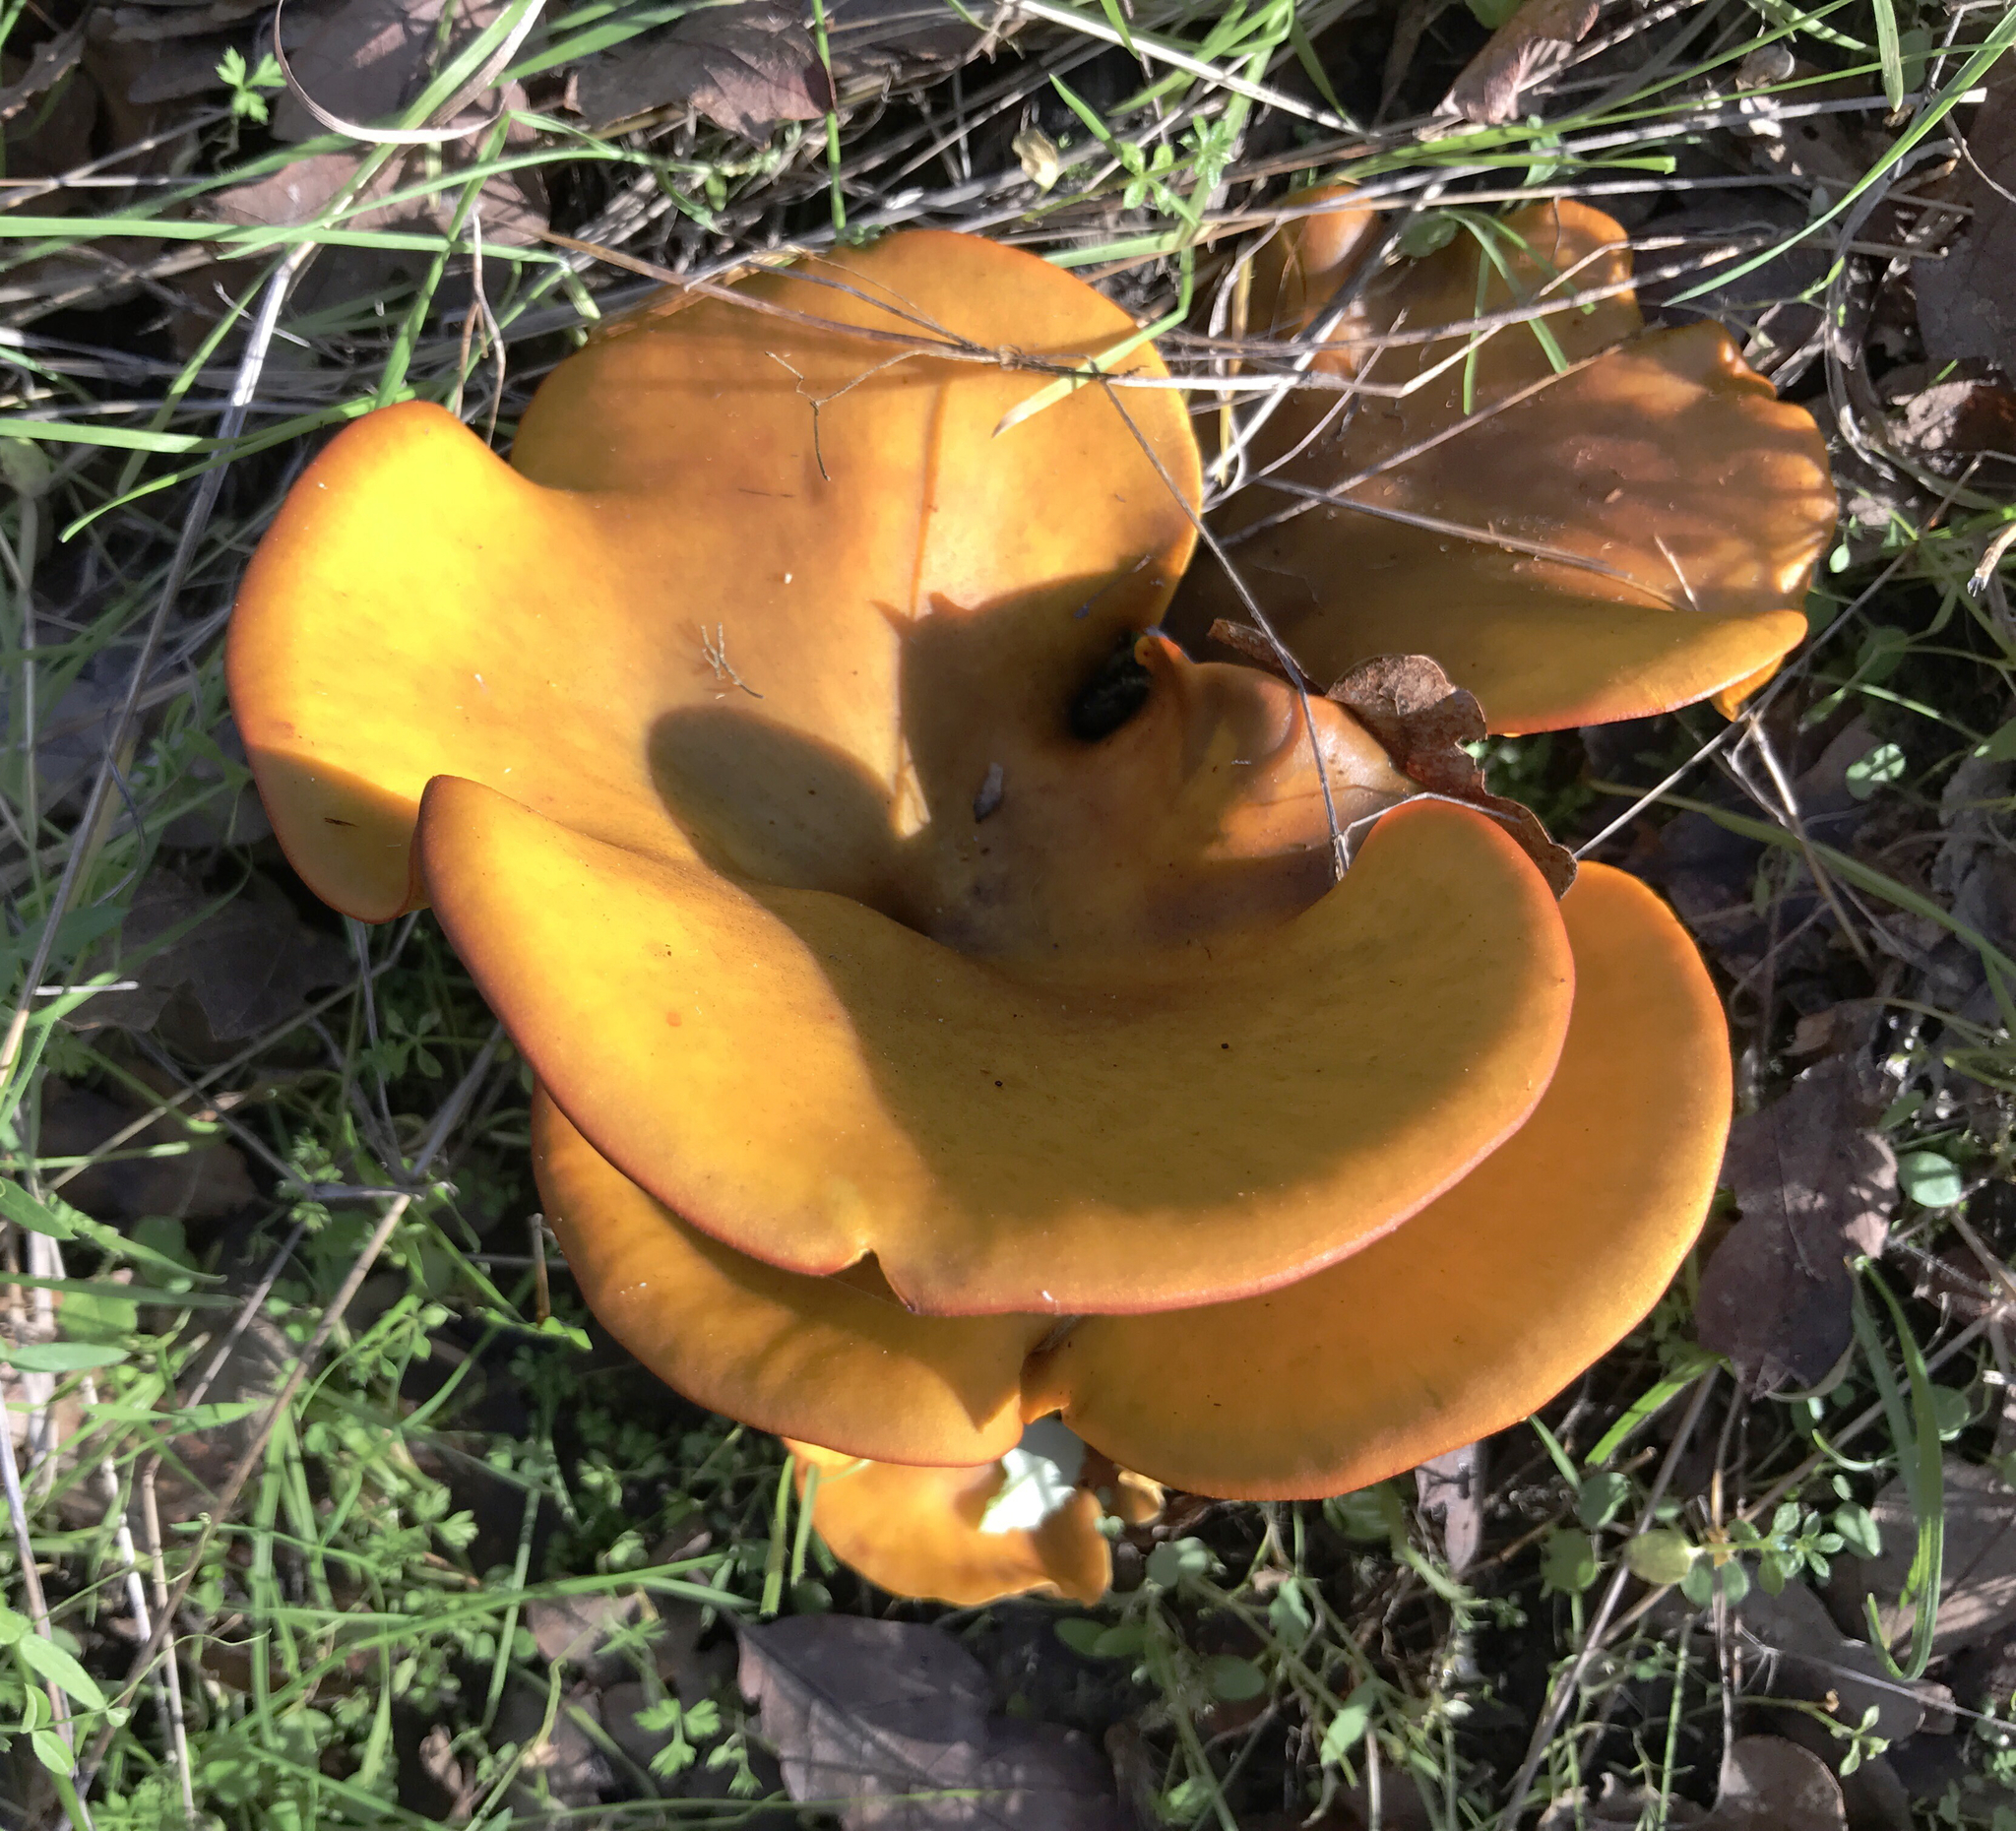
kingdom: Fungi
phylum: Basidiomycota
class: Agaricomycetes
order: Agaricales
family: Omphalotaceae
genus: Omphalotus
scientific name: Omphalotus olivascens
